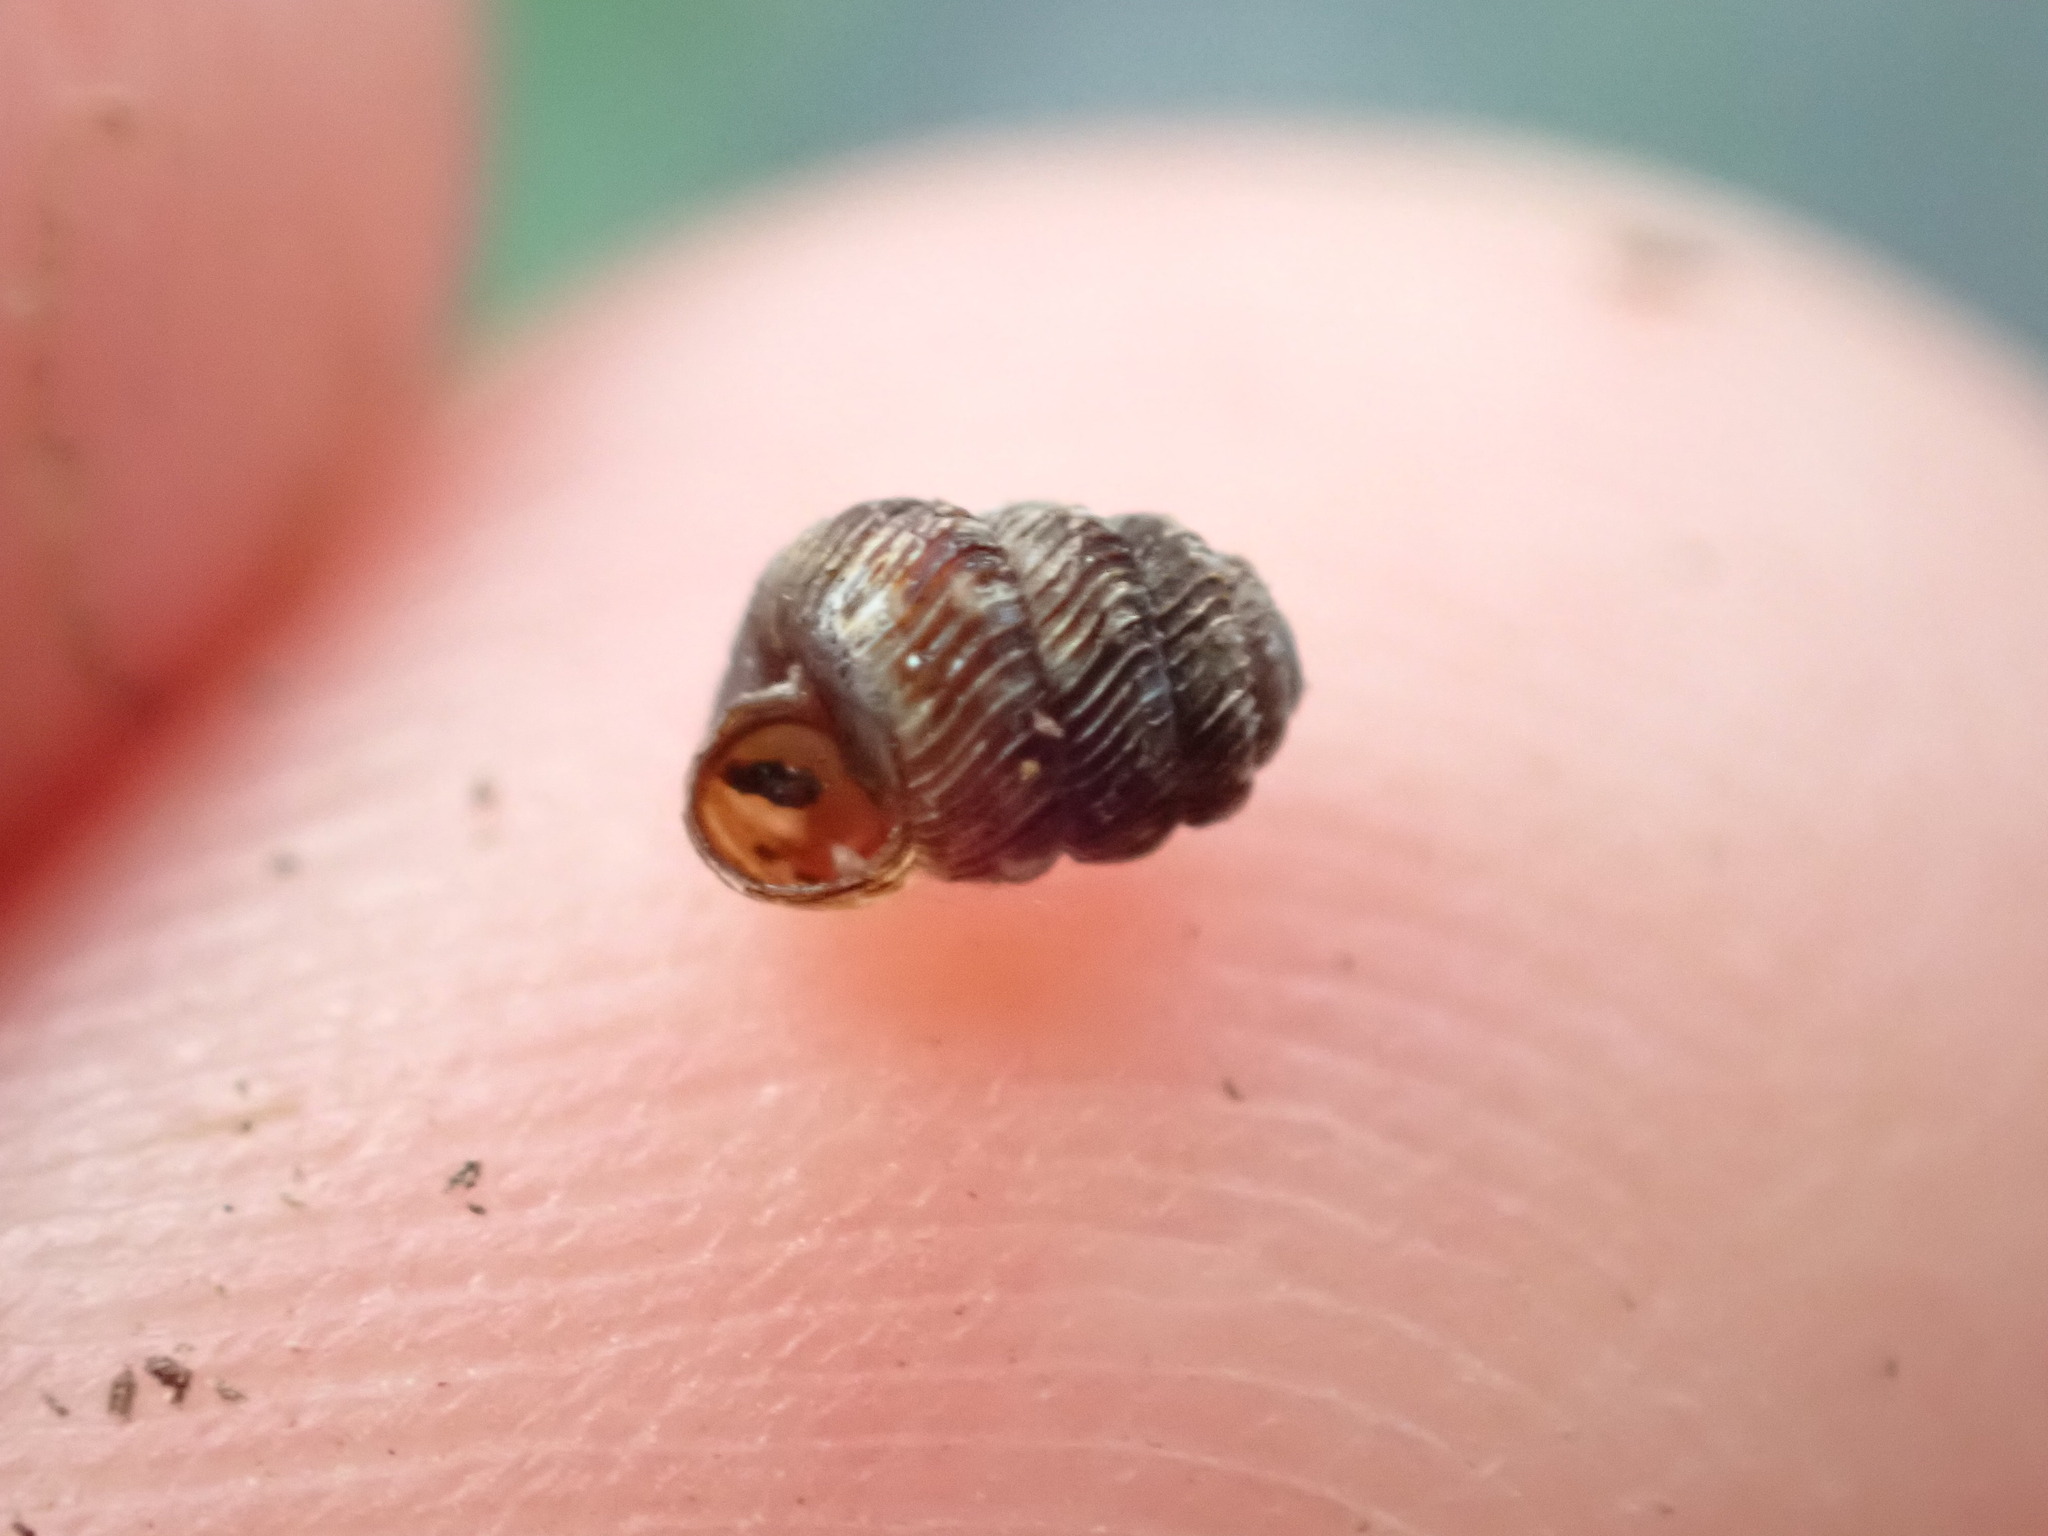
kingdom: Animalia
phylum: Mollusca
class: Gastropoda
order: Stylommatophora
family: Charopidae
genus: Phenacharopa
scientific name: Phenacharopa novoseelandica
